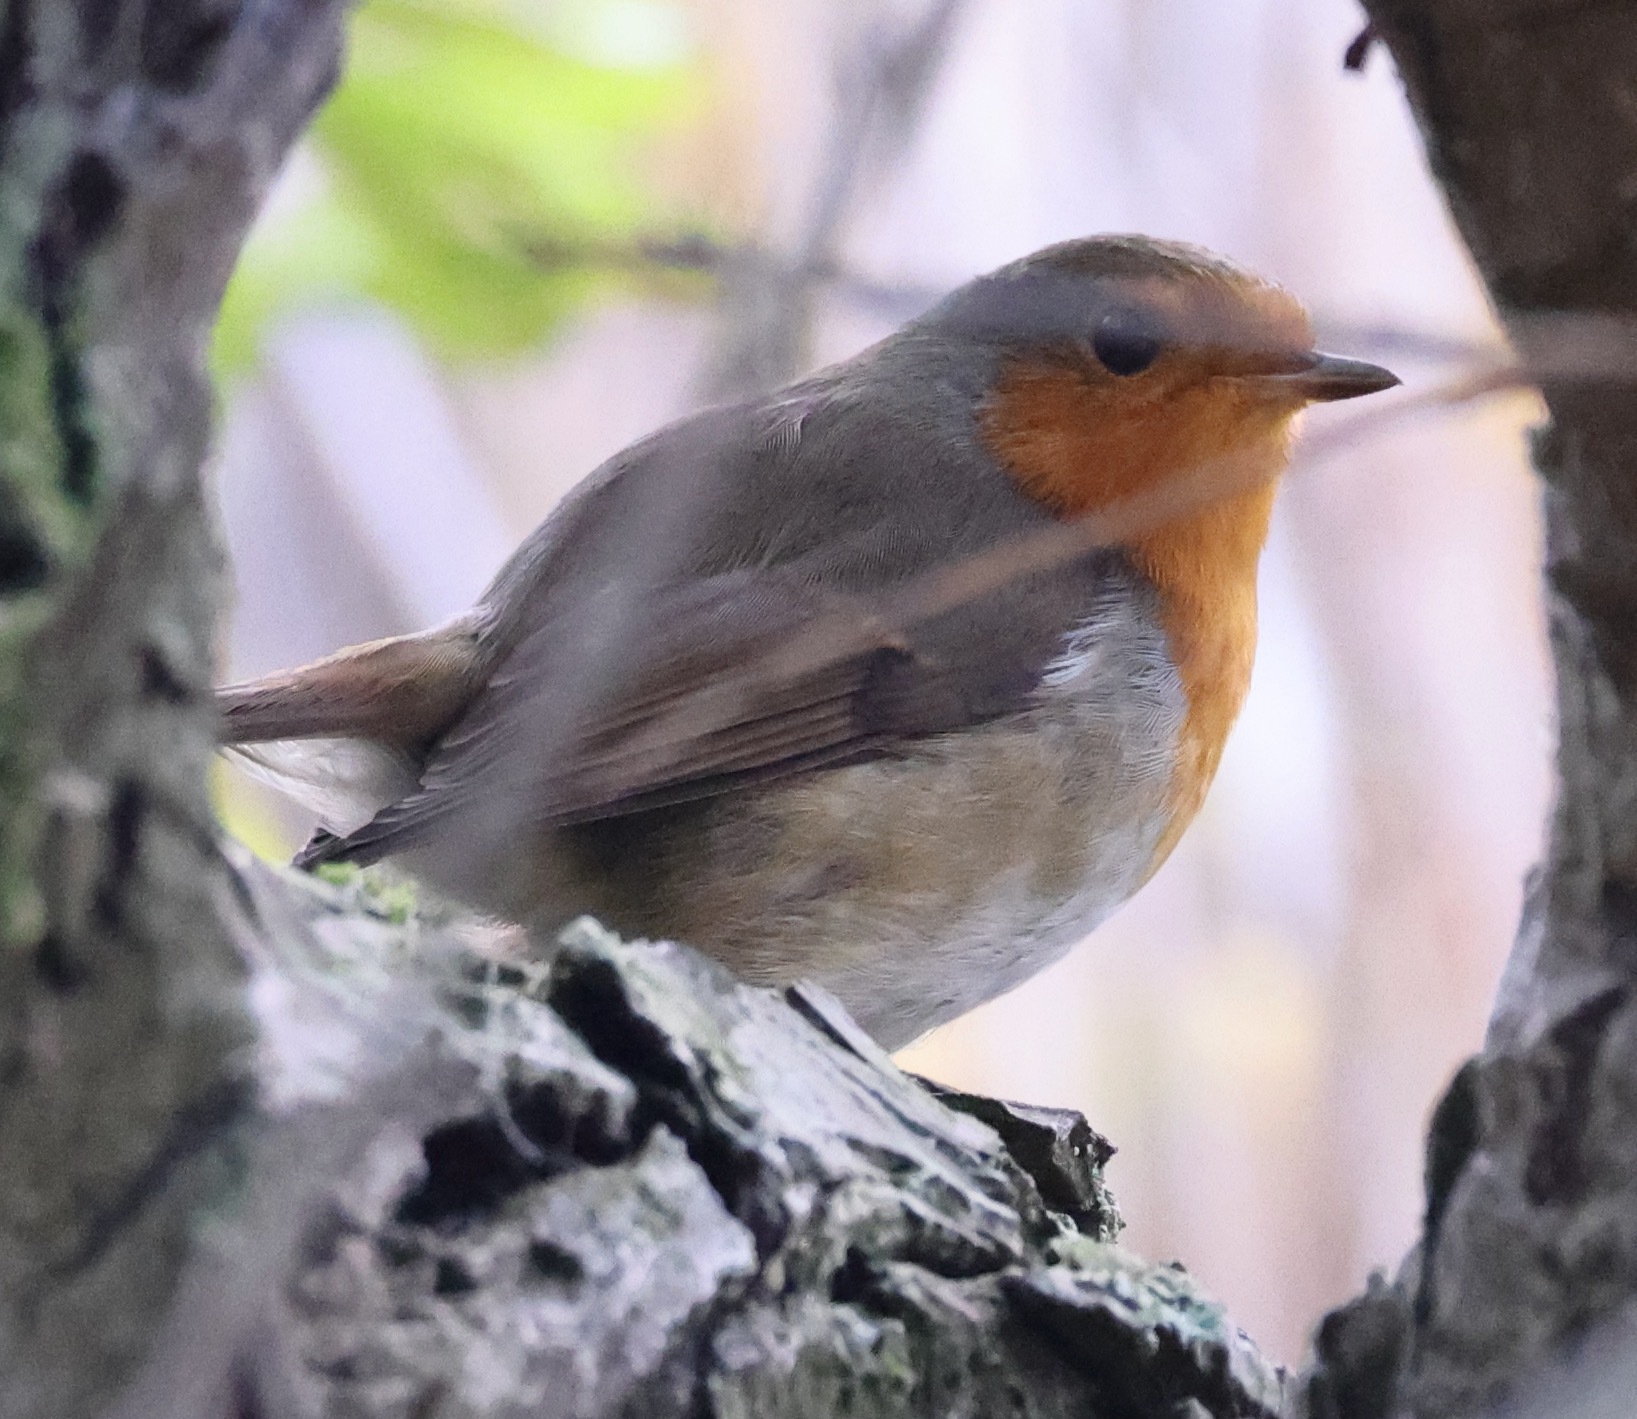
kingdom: Animalia
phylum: Chordata
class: Aves
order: Passeriformes
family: Muscicapidae
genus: Erithacus
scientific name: Erithacus rubecula
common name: European robin
